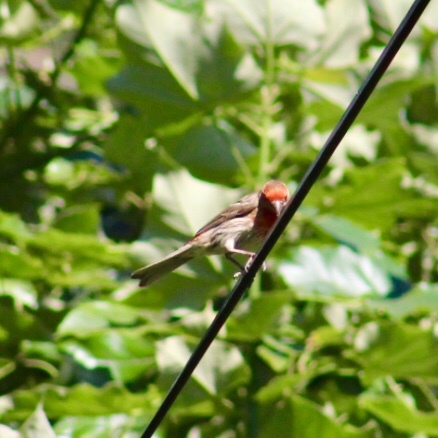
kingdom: Animalia
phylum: Chordata
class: Aves
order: Passeriformes
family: Fringillidae
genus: Haemorhous
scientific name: Haemorhous mexicanus
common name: House finch
